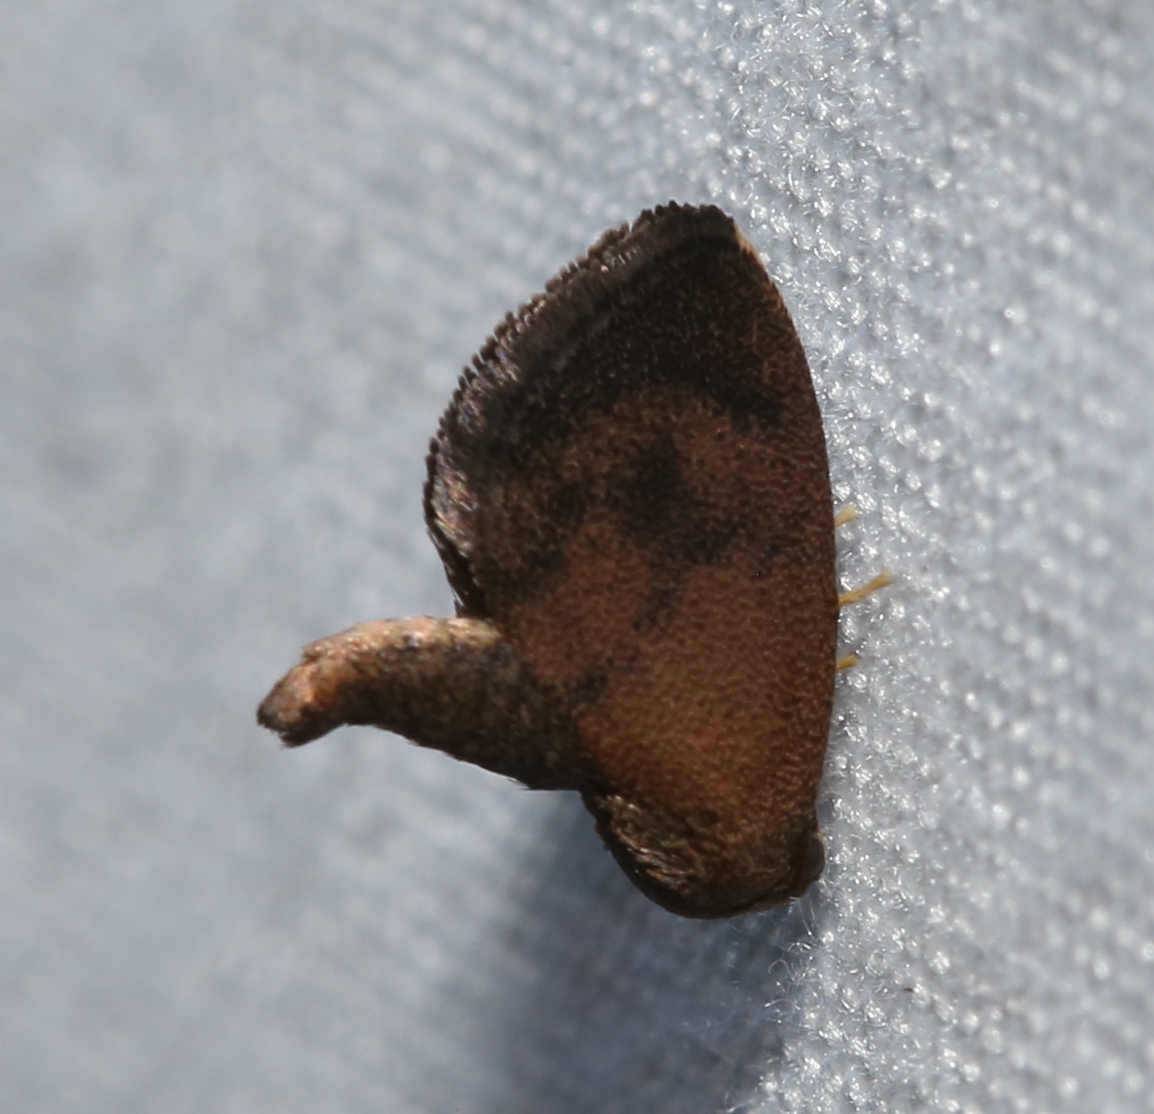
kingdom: Animalia
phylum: Arthropoda
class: Insecta
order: Lepidoptera
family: Limacodidae
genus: Heterogenea
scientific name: Heterogenea shurtleffi
